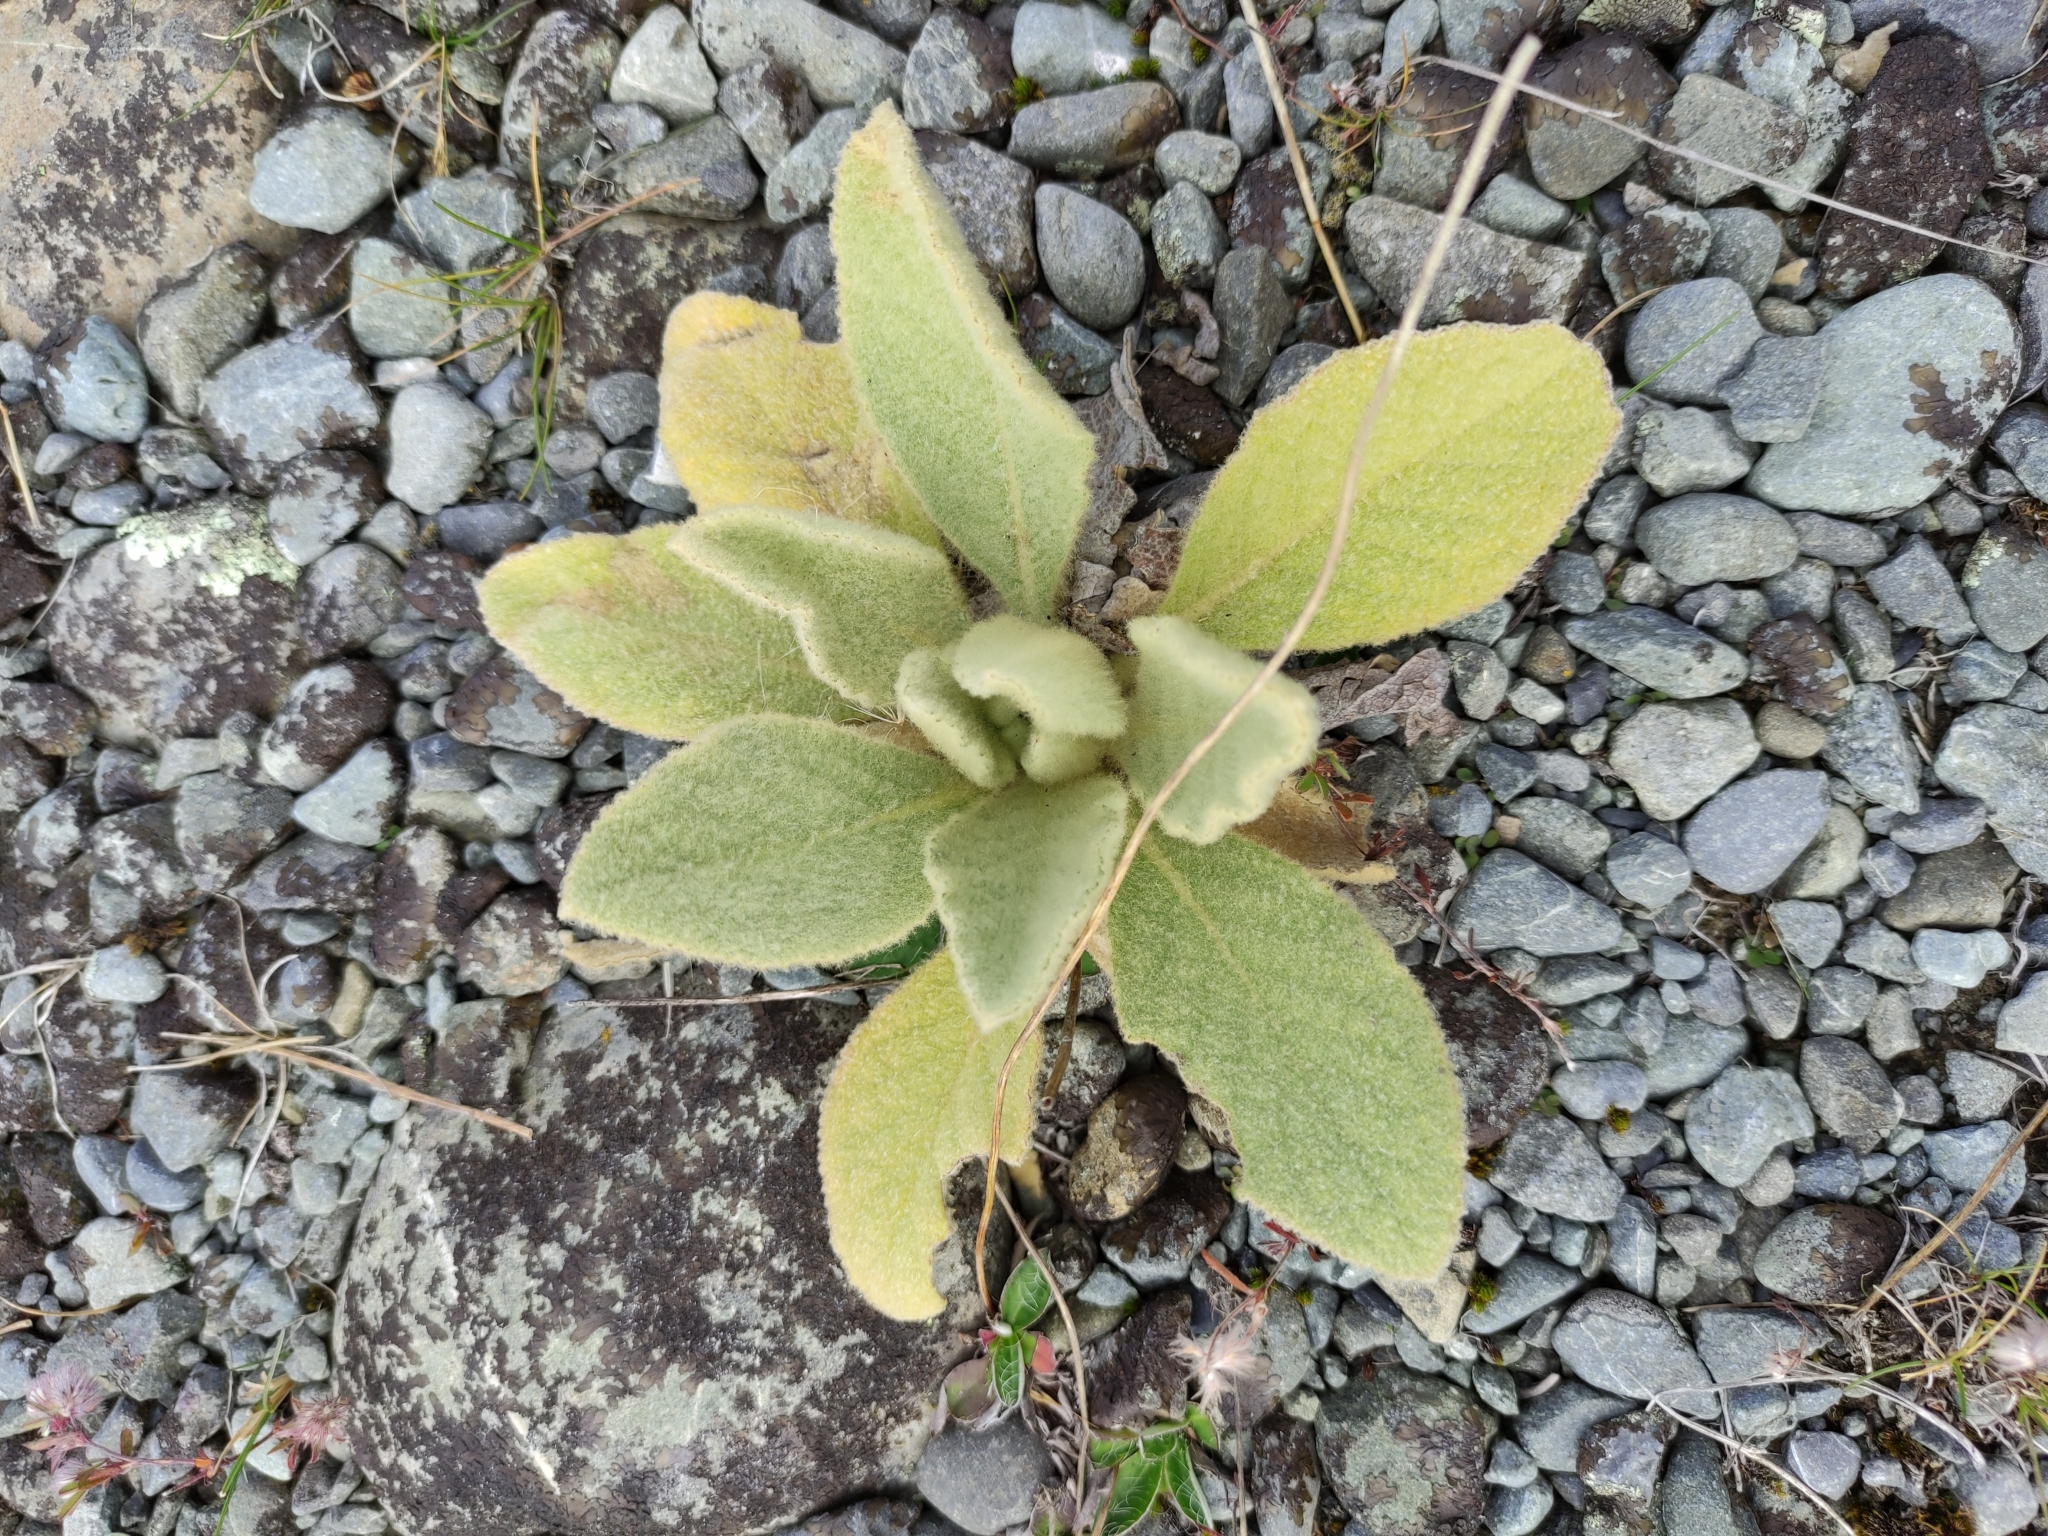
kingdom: Plantae
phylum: Tracheophyta
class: Magnoliopsida
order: Lamiales
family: Scrophulariaceae
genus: Verbascum
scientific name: Verbascum thapsus
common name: Common mullein
